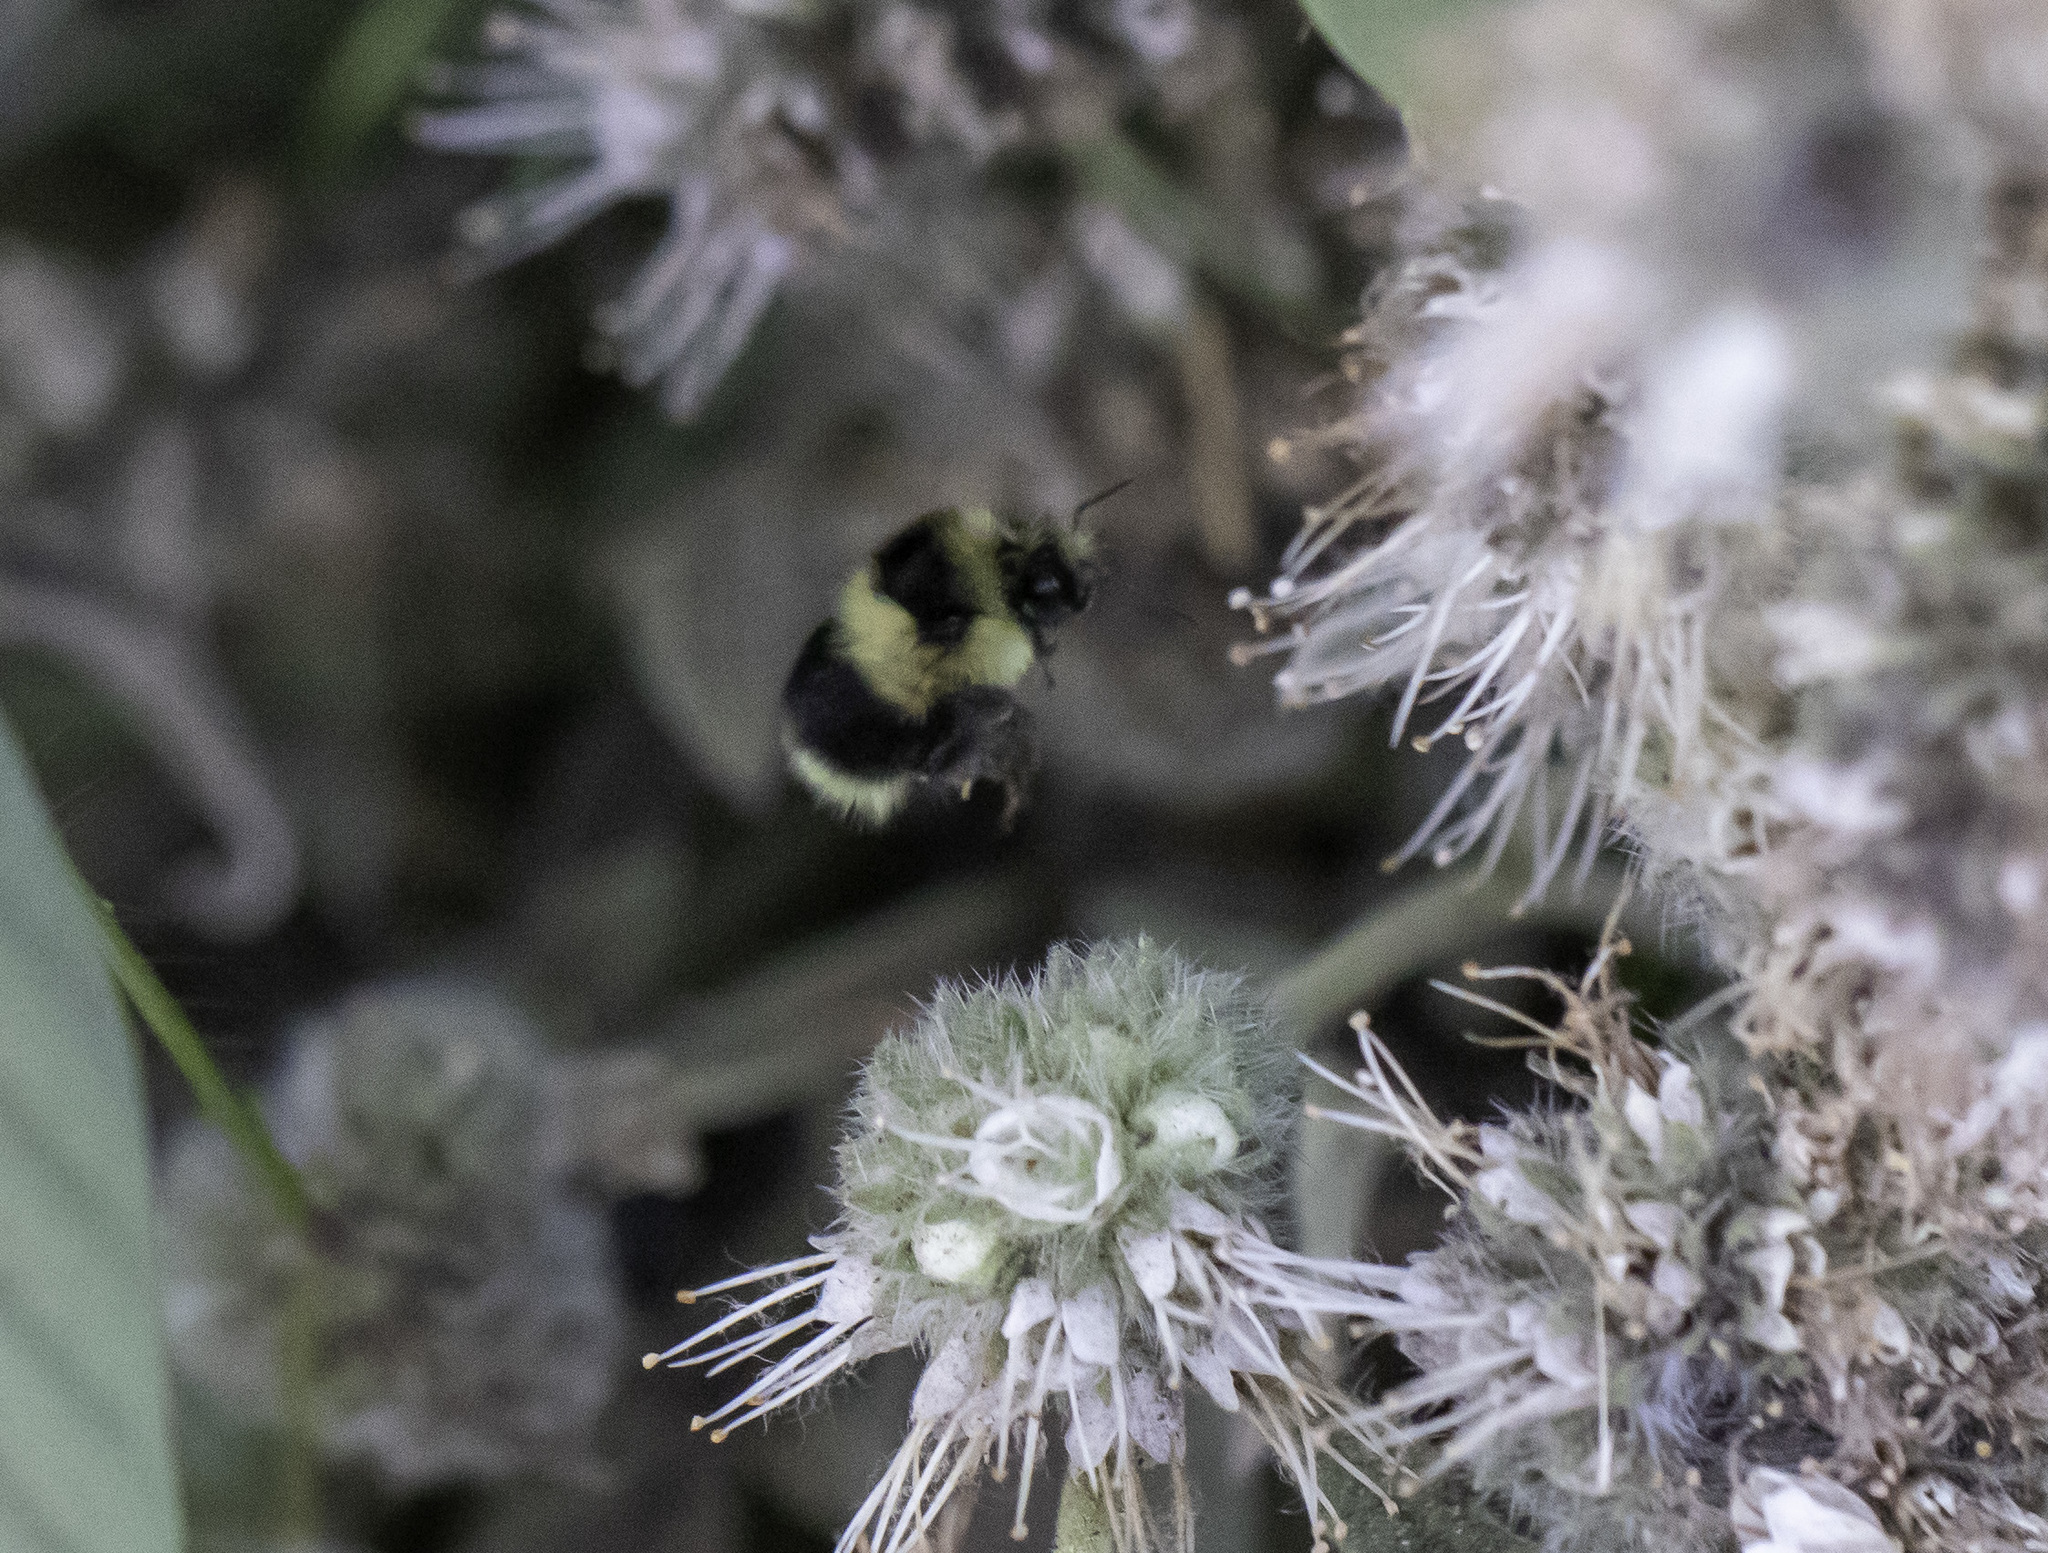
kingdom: Animalia
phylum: Arthropoda
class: Insecta
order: Hymenoptera
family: Apidae
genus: Bombus
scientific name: Bombus melanopygus
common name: Black tail bumble bee
